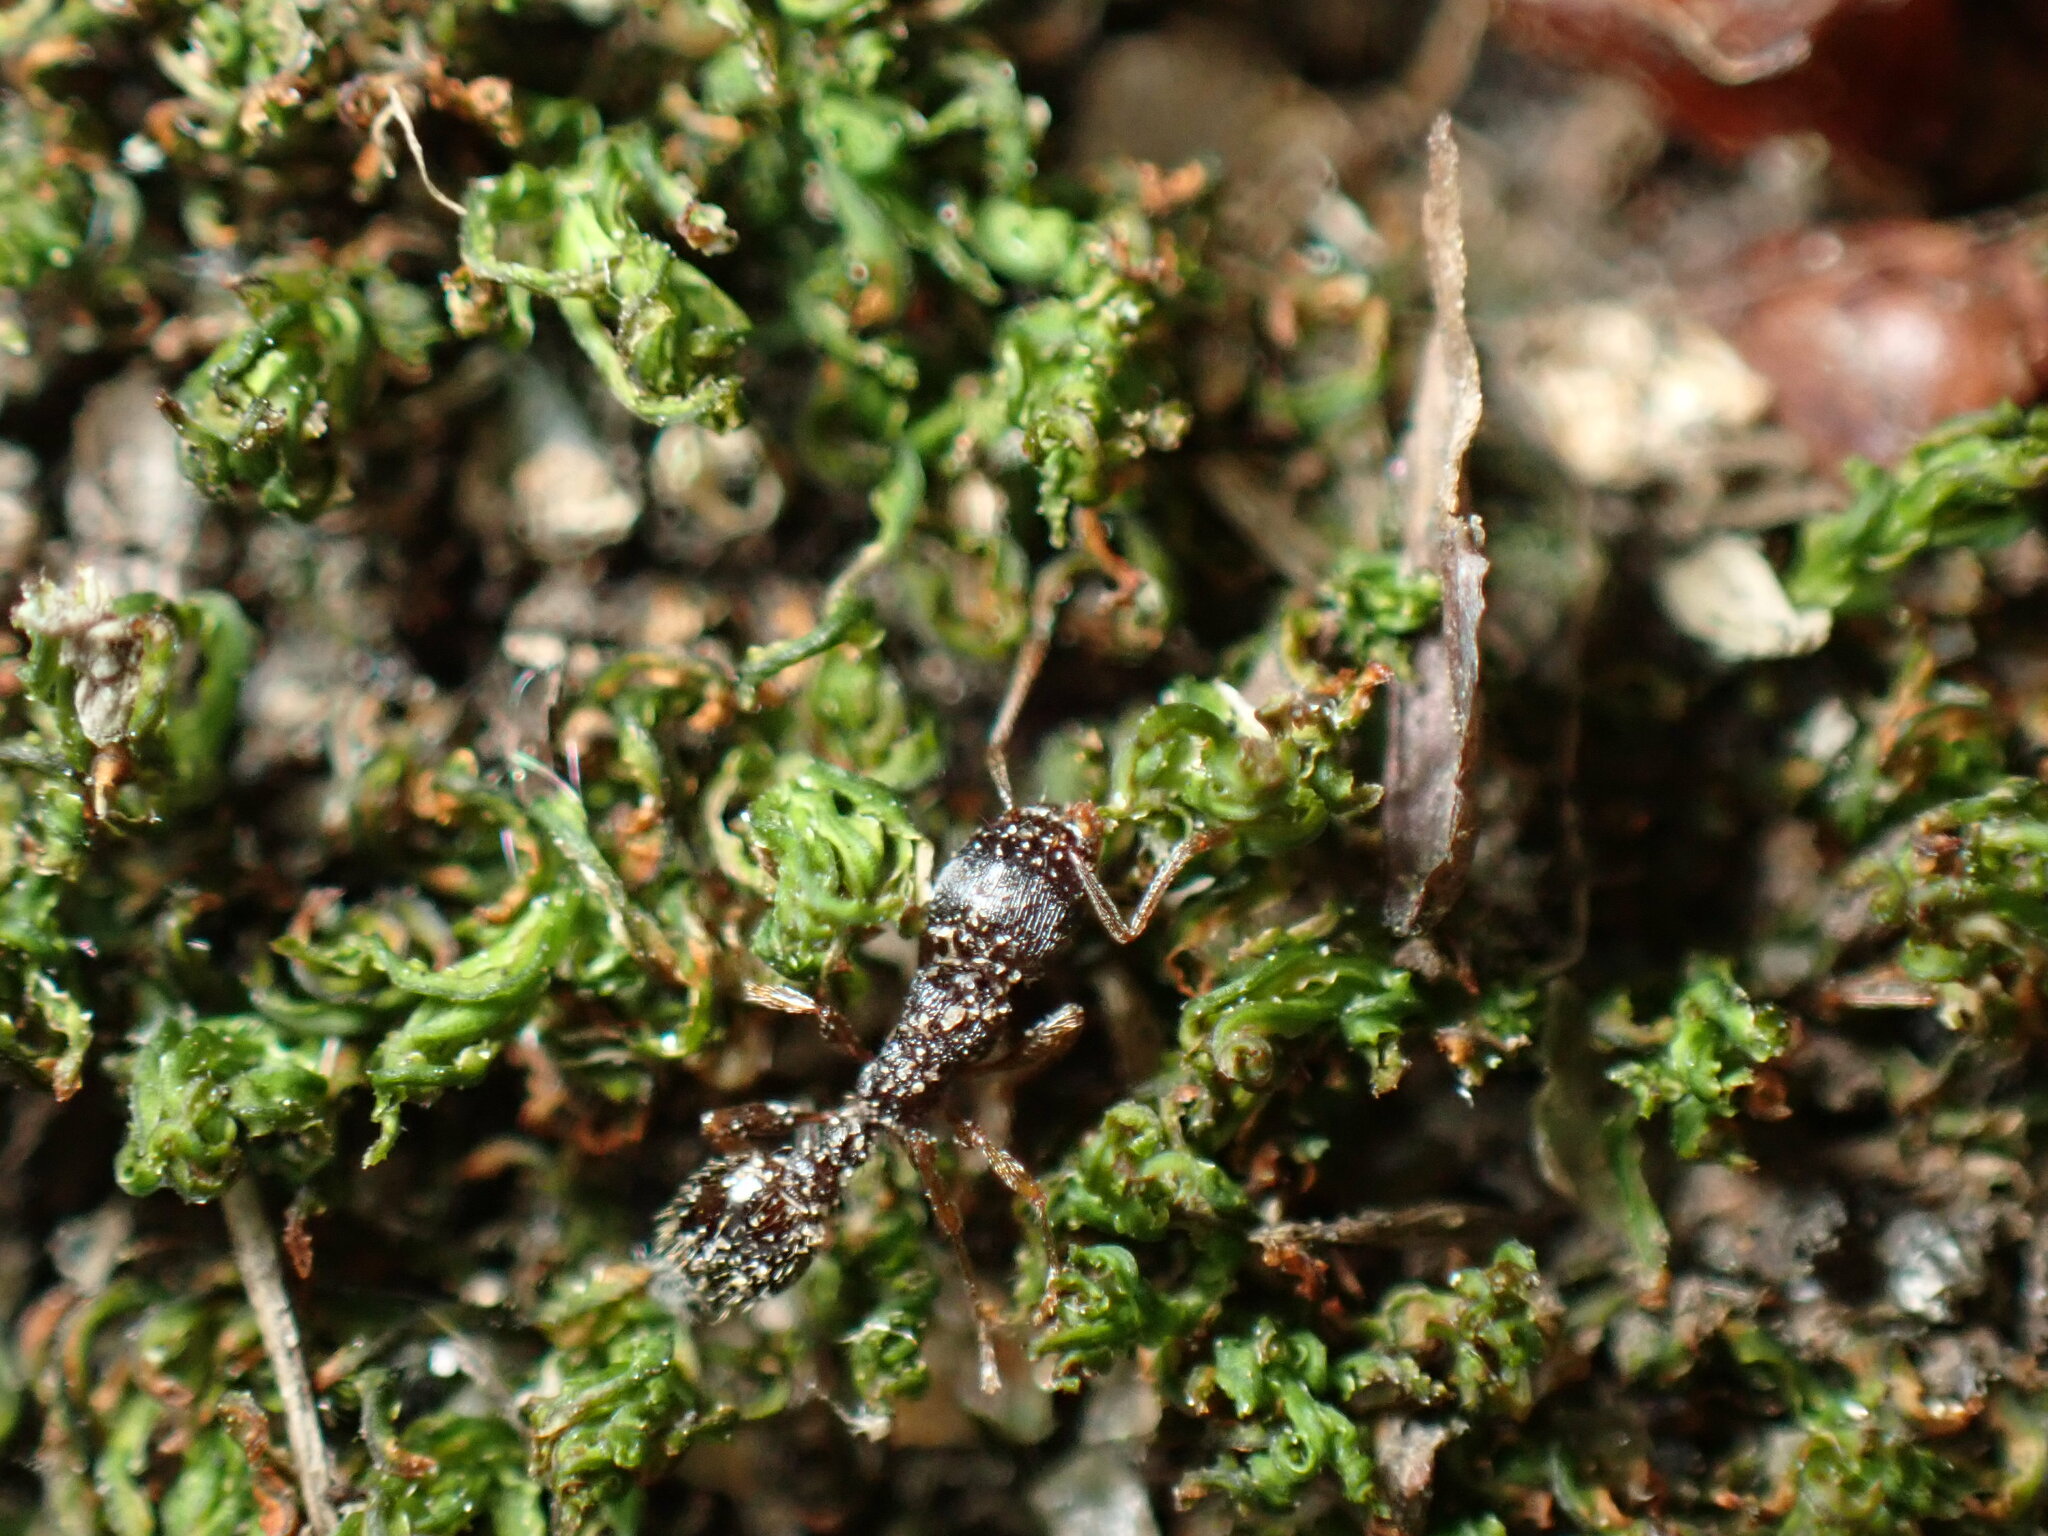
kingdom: Animalia
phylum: Arthropoda
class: Insecta
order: Hymenoptera
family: Formicidae
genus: Tetramorium
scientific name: Tetramorium immigrans
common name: Pavement ant
